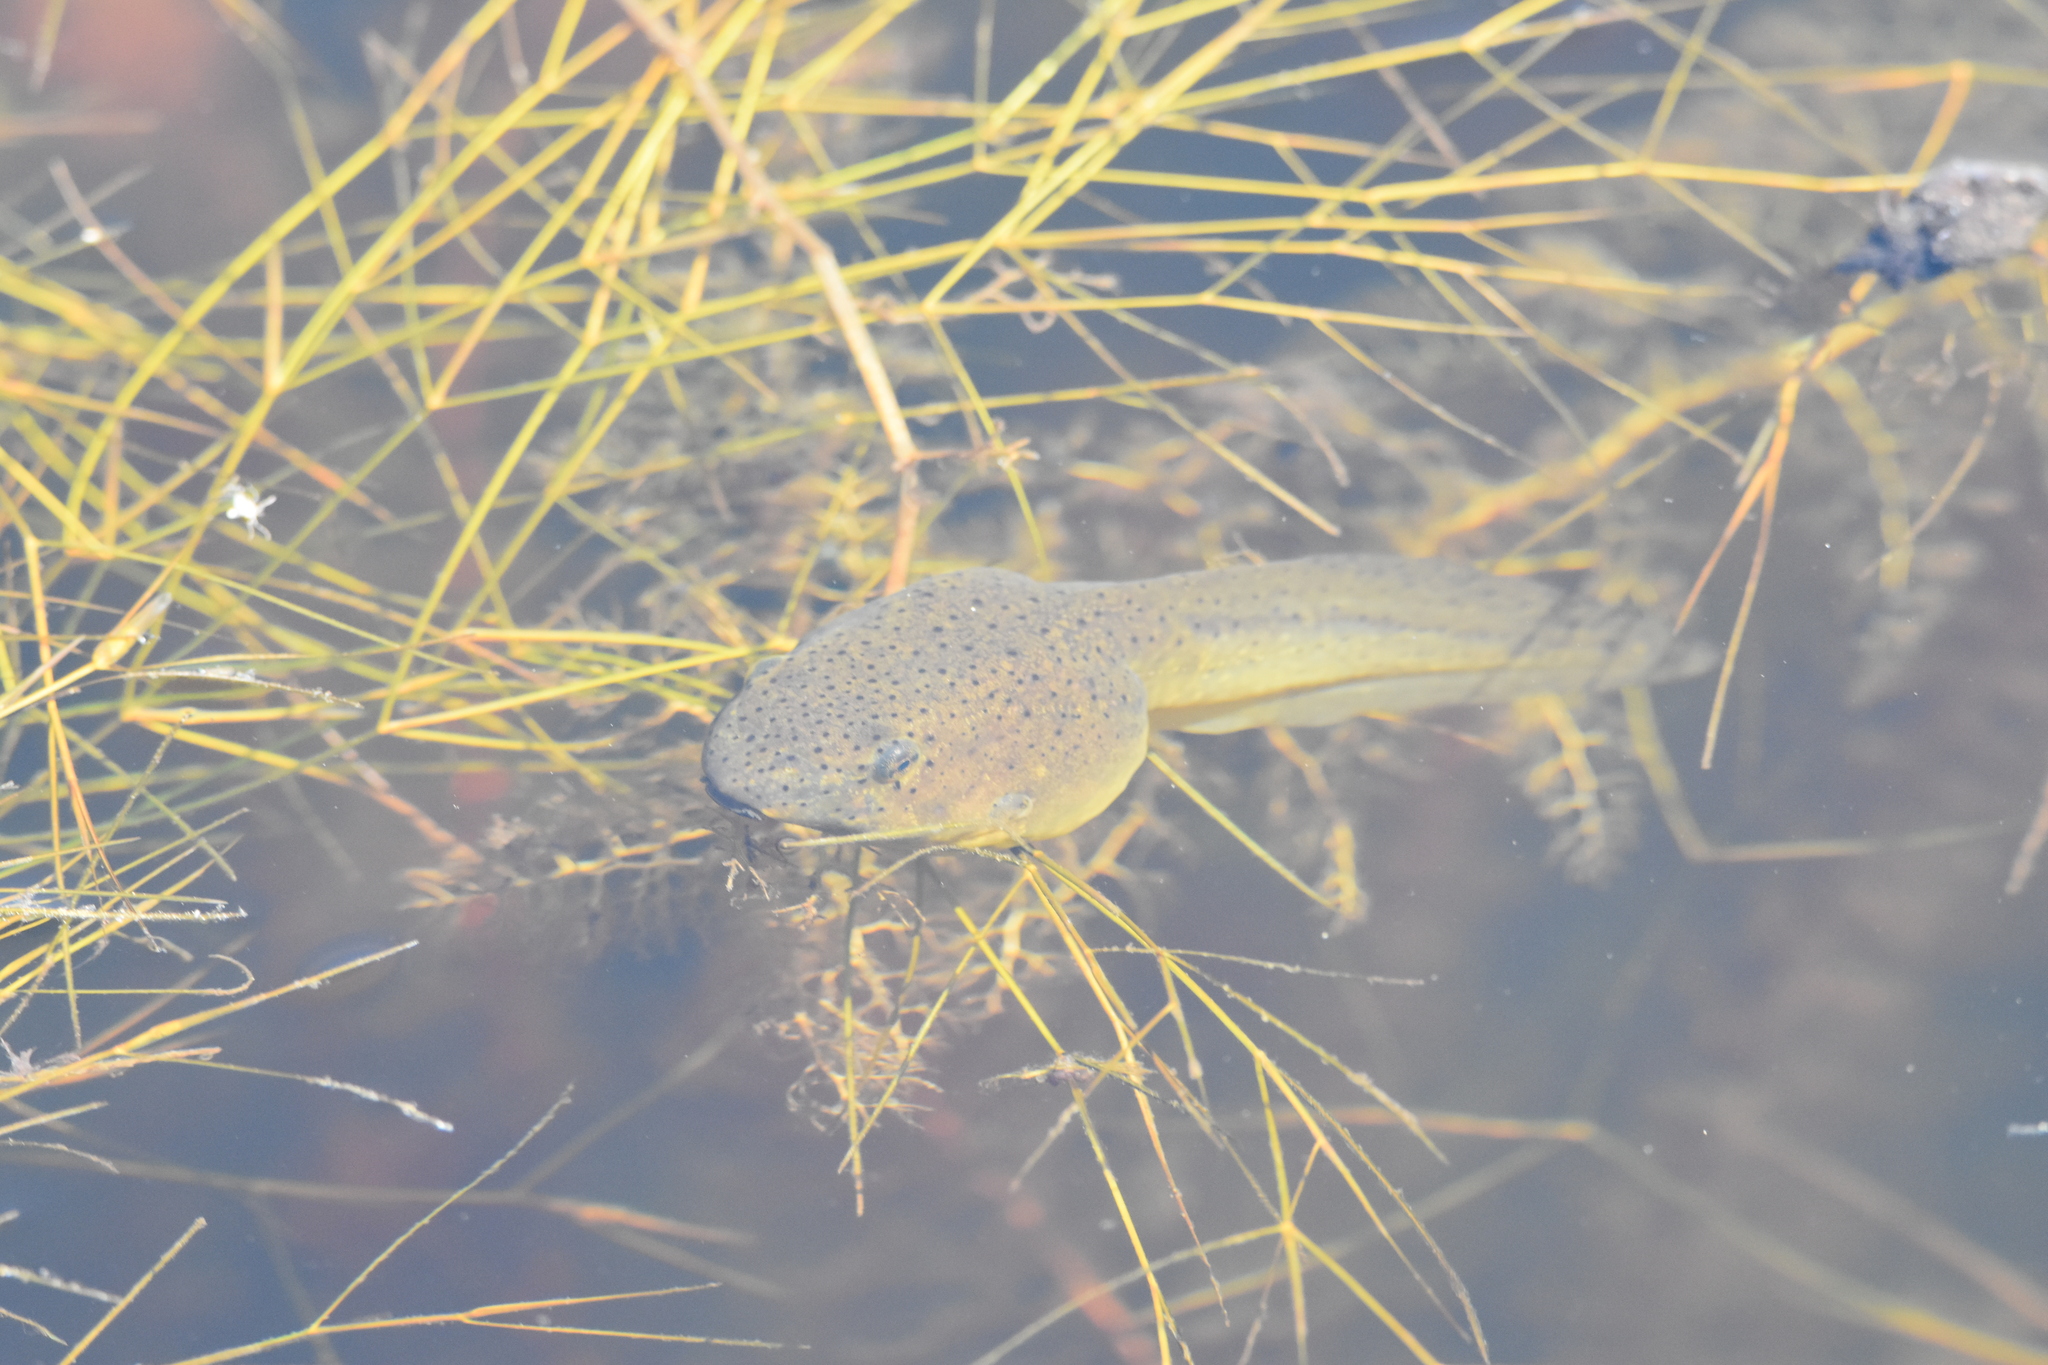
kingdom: Animalia
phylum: Chordata
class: Amphibia
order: Anura
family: Ranidae
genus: Lithobates
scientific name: Lithobates catesbeianus
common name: American bullfrog
